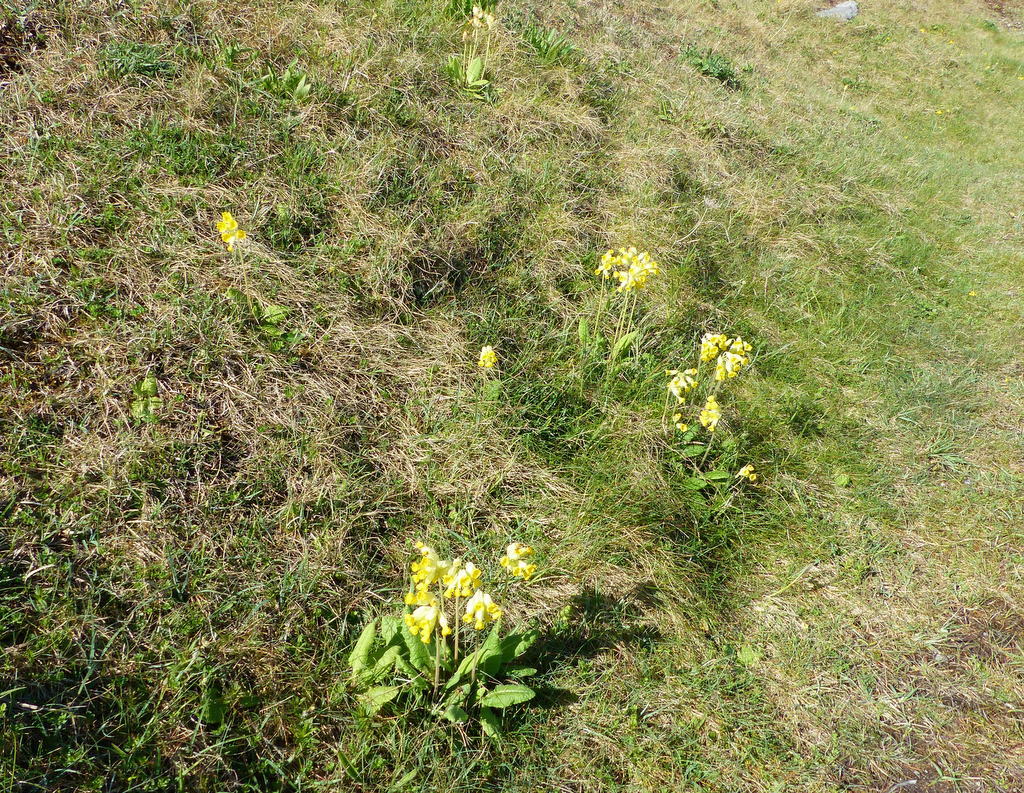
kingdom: Plantae
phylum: Tracheophyta
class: Magnoliopsida
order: Ericales
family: Primulaceae
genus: Primula
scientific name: Primula veris
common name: Cowslip
